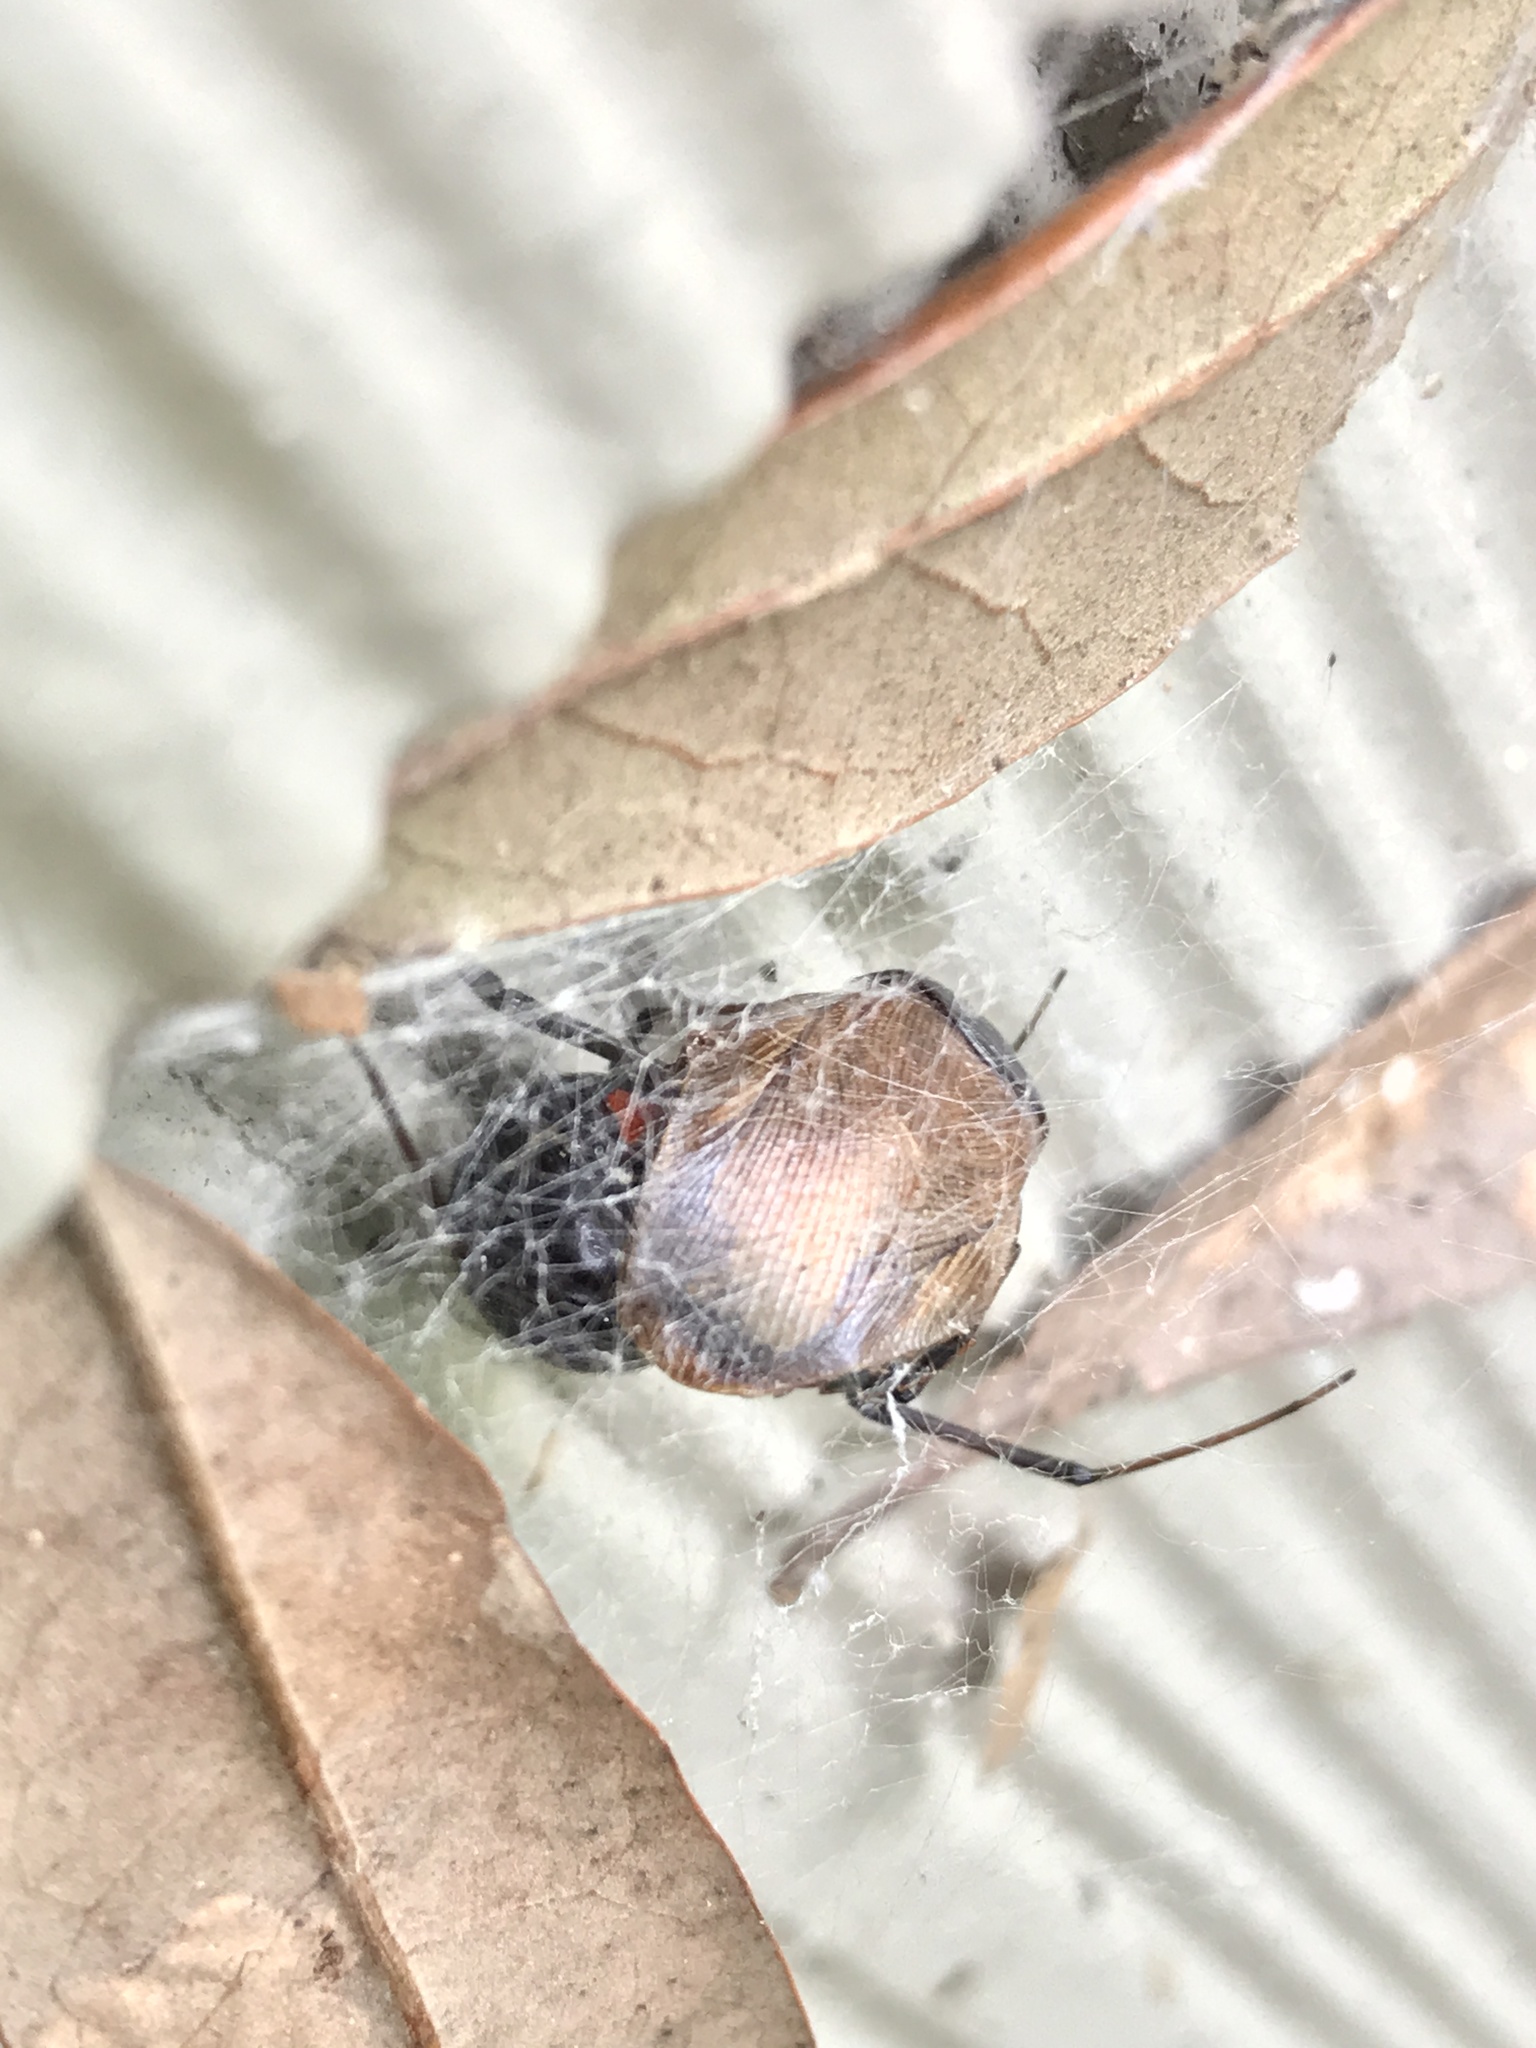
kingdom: Animalia
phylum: Arthropoda
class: Arachnida
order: Araneae
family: Theridiidae
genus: Latrodectus
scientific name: Latrodectus mactans
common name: Cobweb spiders
